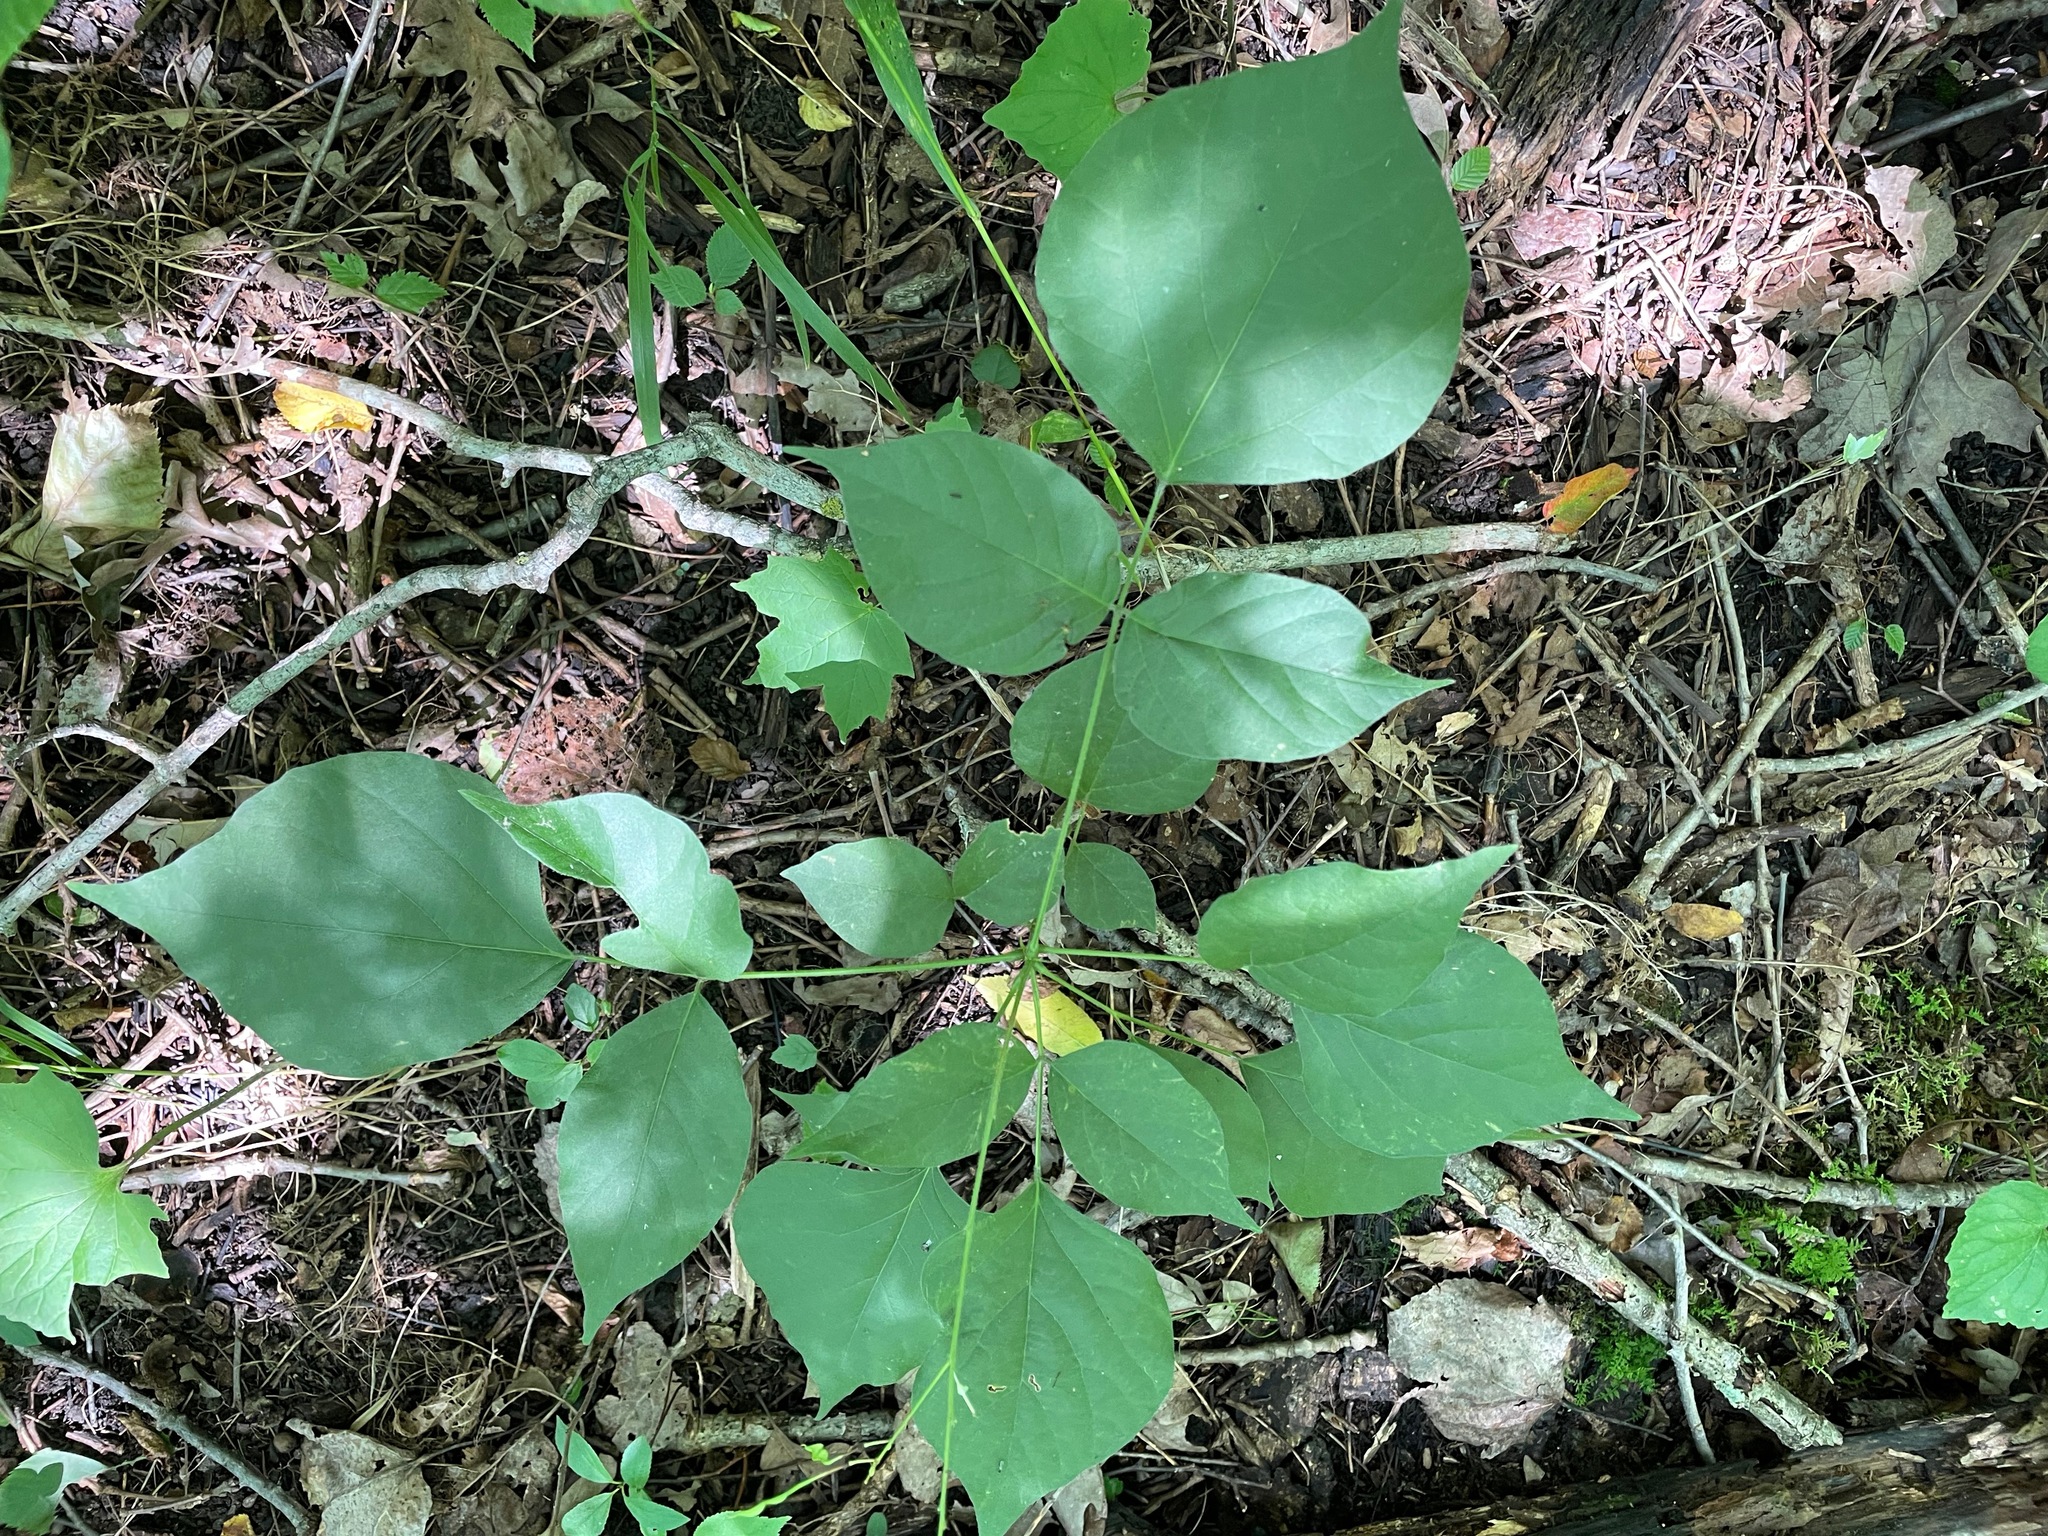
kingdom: Plantae
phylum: Tracheophyta
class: Magnoliopsida
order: Fabales
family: Fabaceae
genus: Hylodesmum
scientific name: Hylodesmum glutinosum
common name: Clustered-leaved tick-trefoil
